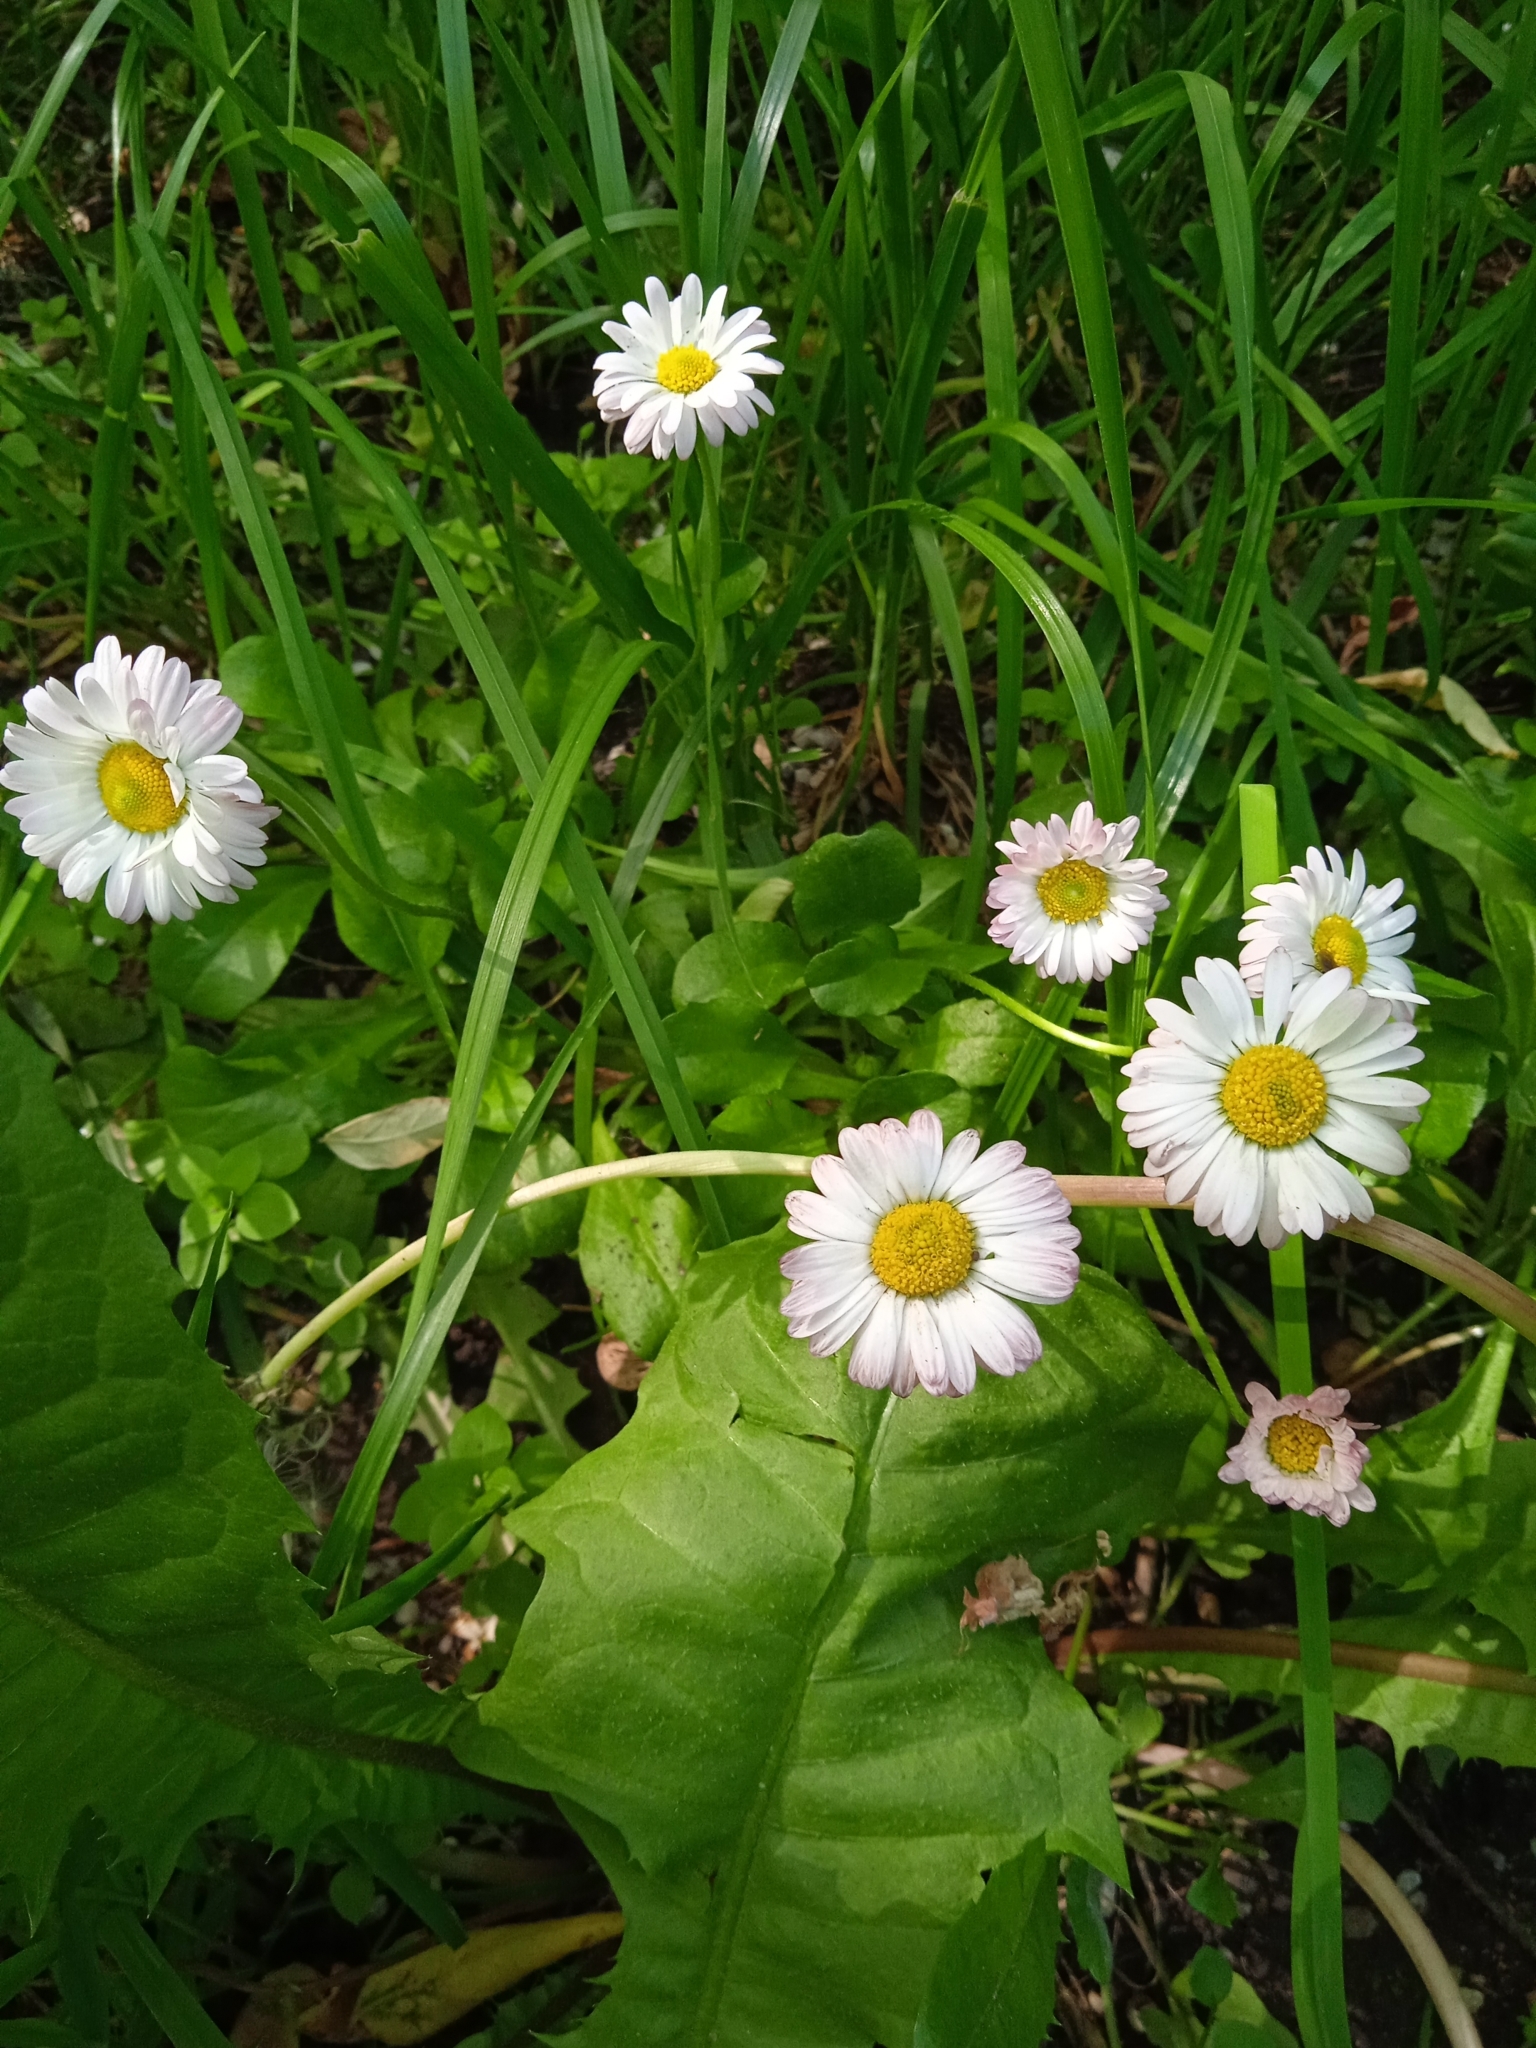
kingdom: Plantae
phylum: Tracheophyta
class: Magnoliopsida
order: Asterales
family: Asteraceae
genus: Bellis
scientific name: Bellis perennis
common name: Lawndaisy
